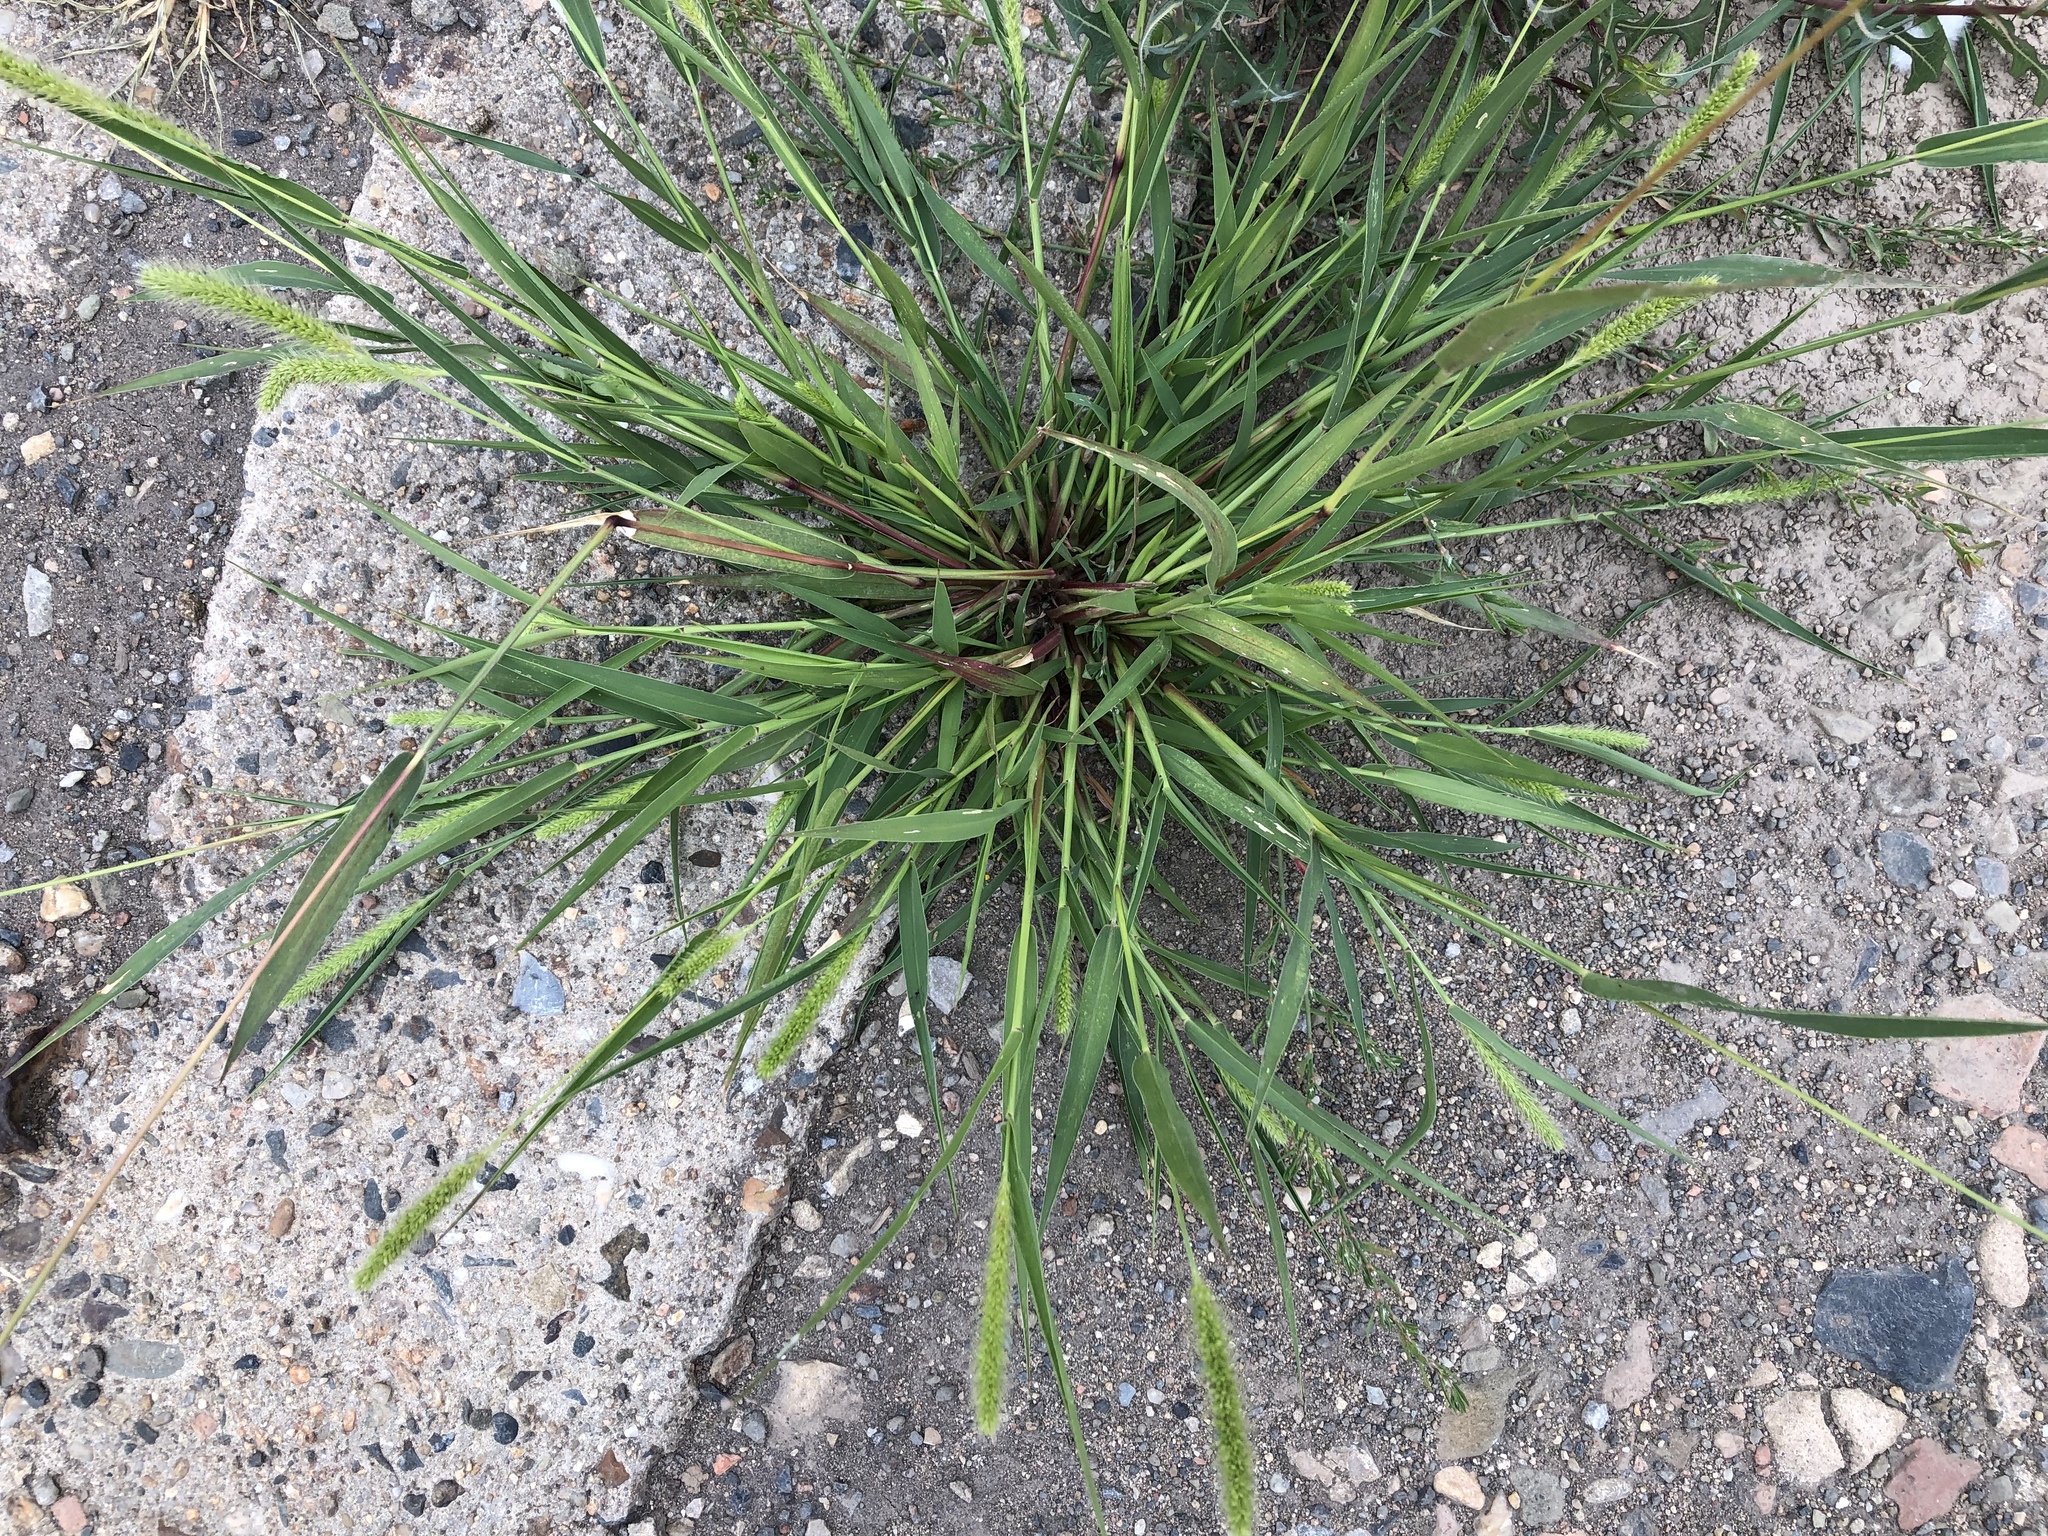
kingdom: Plantae
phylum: Tracheophyta
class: Liliopsida
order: Poales
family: Poaceae
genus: Setaria
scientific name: Setaria viridis
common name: Green bristlegrass
